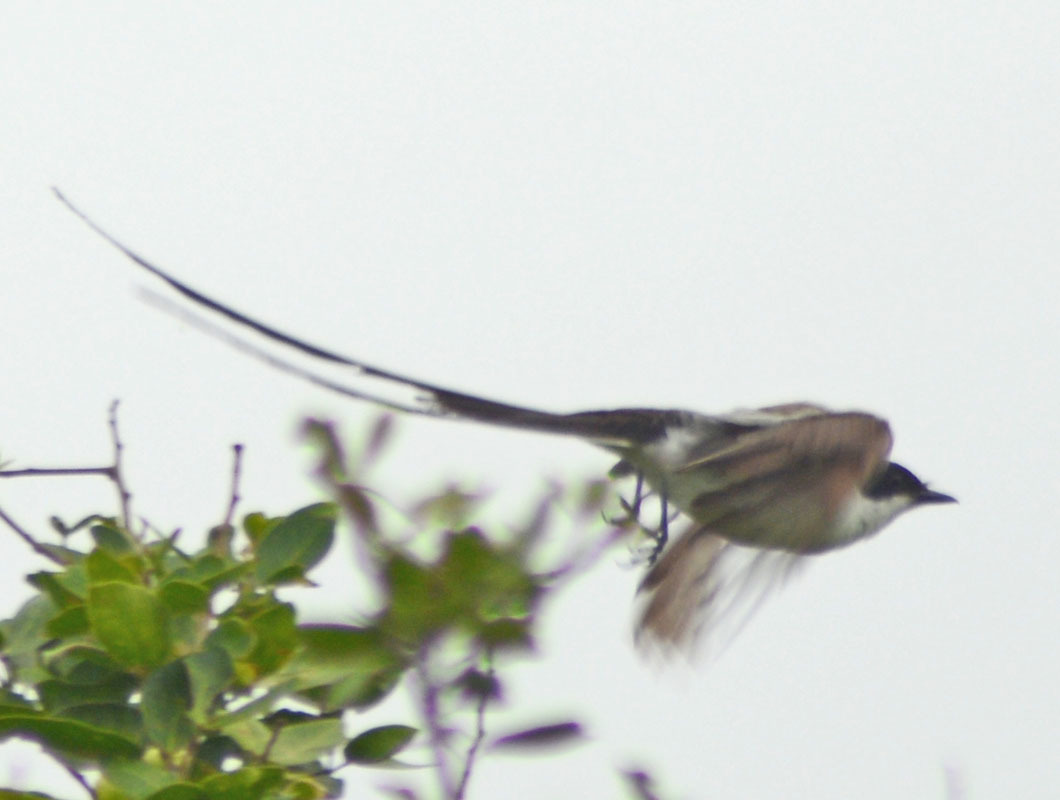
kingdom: Animalia
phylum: Chordata
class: Aves
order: Passeriformes
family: Tyrannidae
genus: Tyrannus
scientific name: Tyrannus savana
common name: Fork-tailed flycatcher
